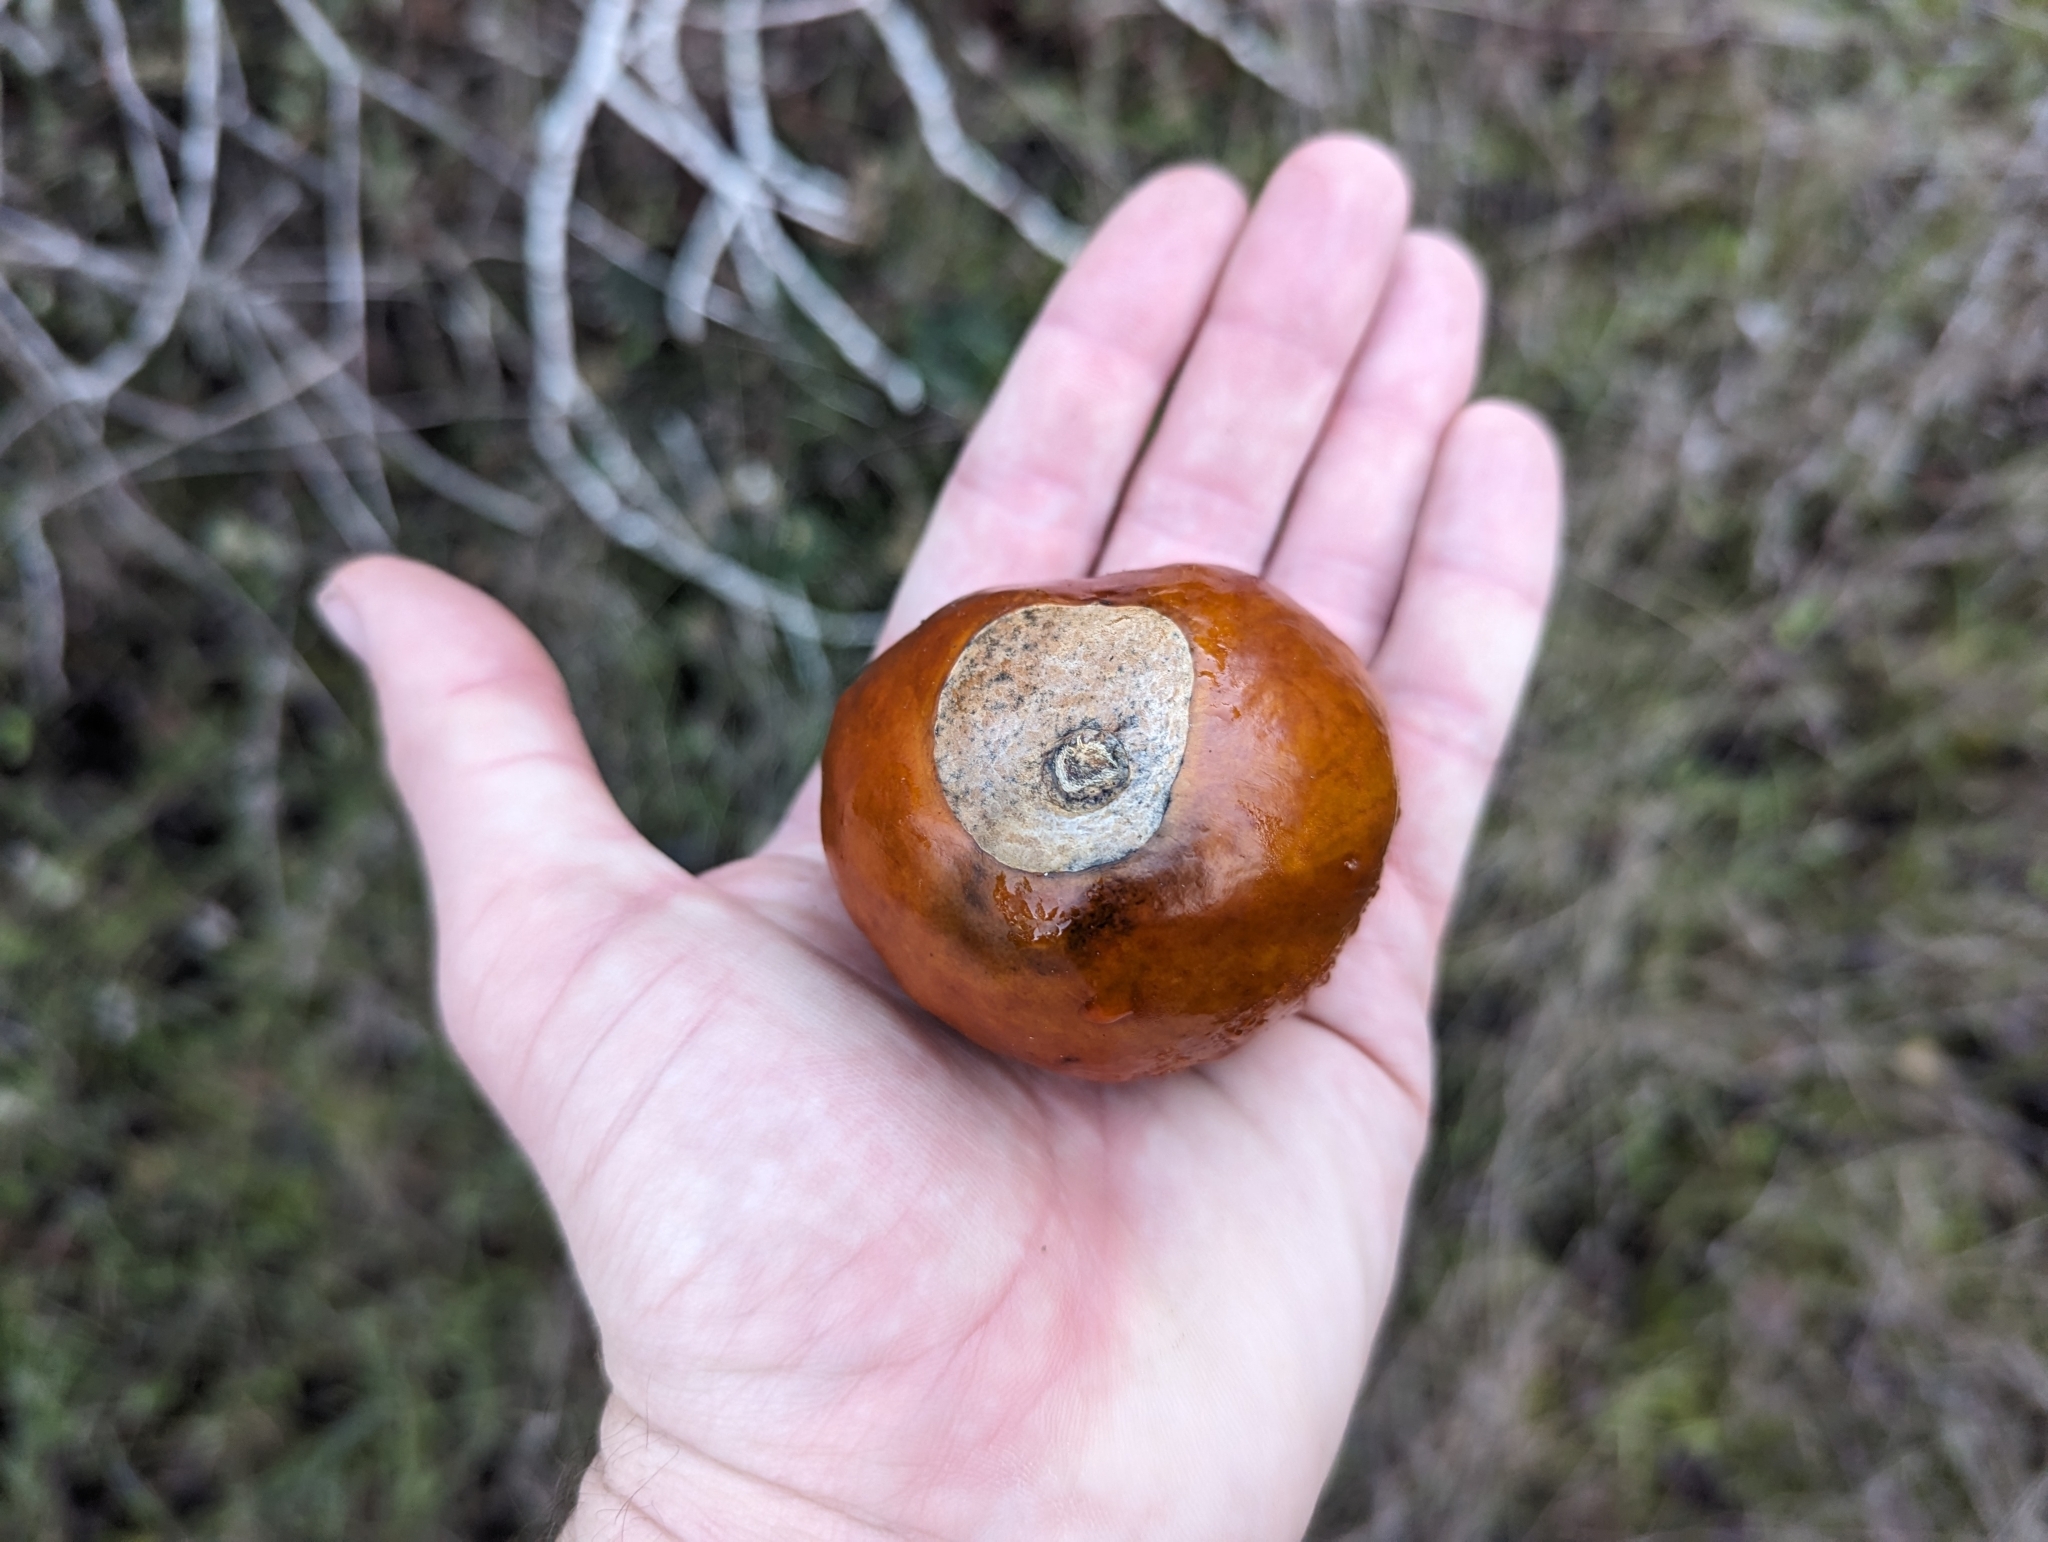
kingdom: Plantae
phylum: Tracheophyta
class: Magnoliopsida
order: Sapindales
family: Sapindaceae
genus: Aesculus
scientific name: Aesculus californica
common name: California buckeye
